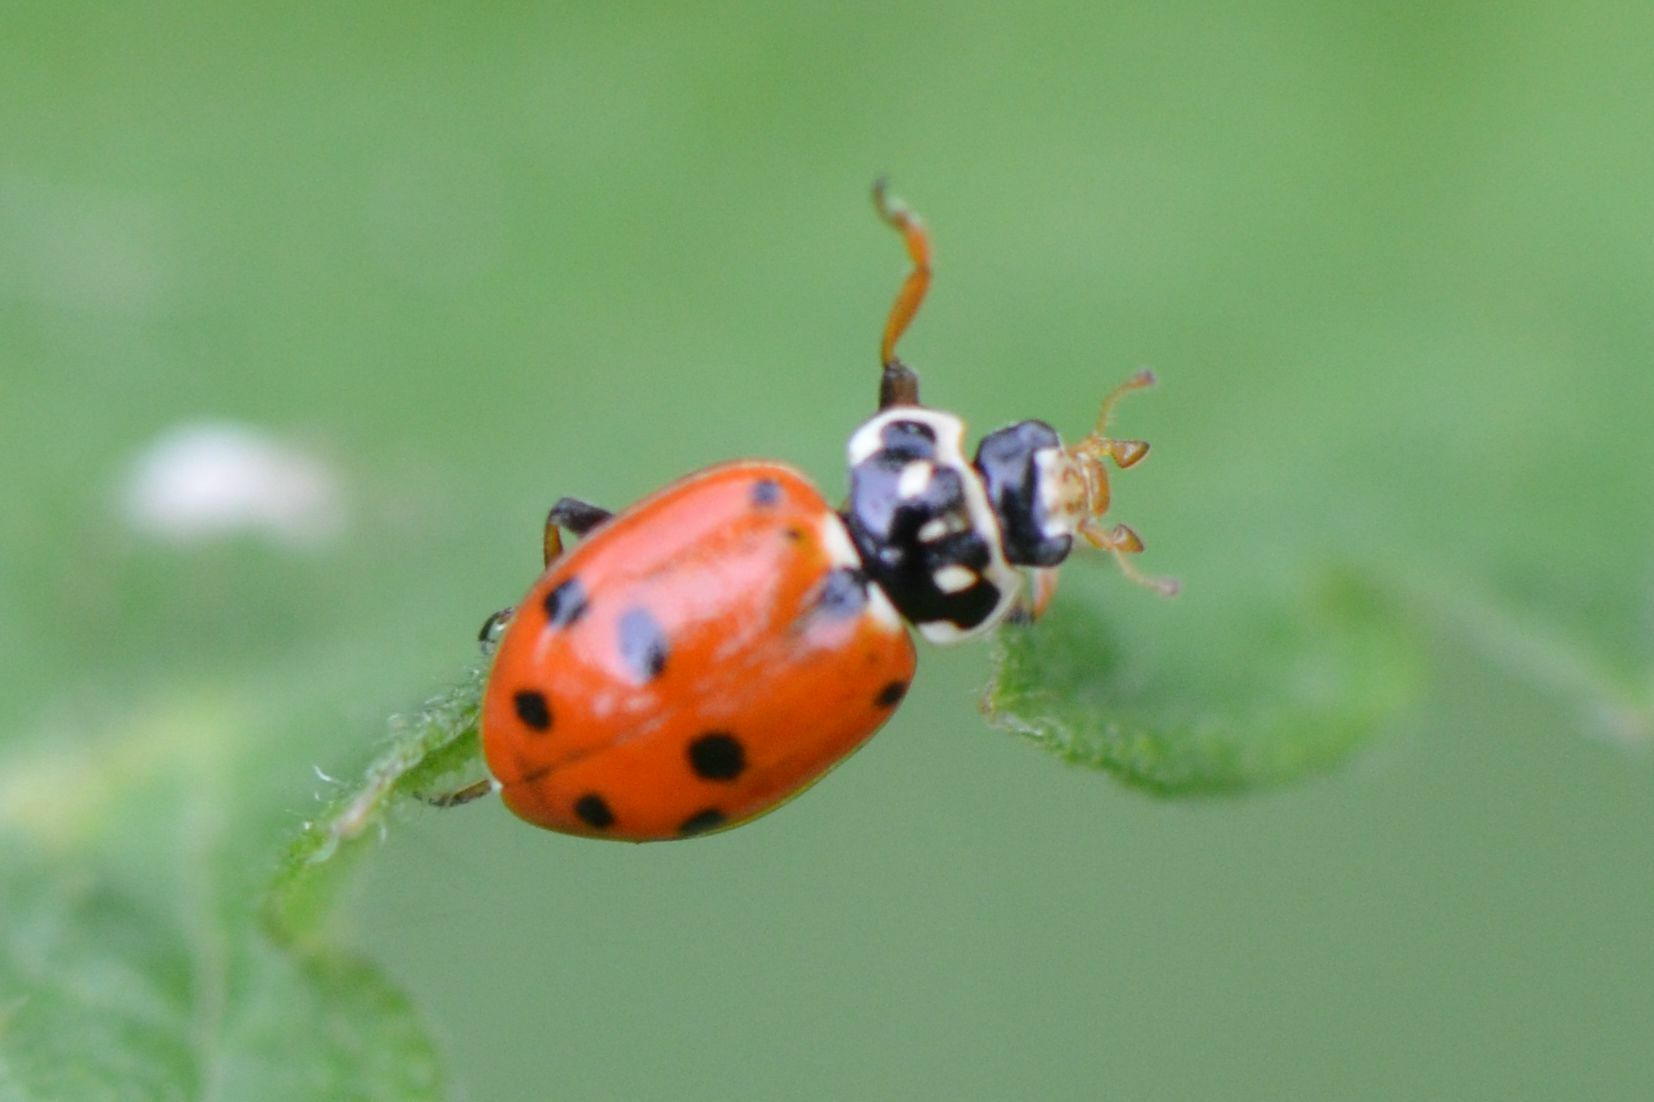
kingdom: Animalia
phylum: Arthropoda
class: Insecta
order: Coleoptera
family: Coccinellidae
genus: Hippodamia
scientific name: Hippodamia variegata
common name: Ladybird beetle
